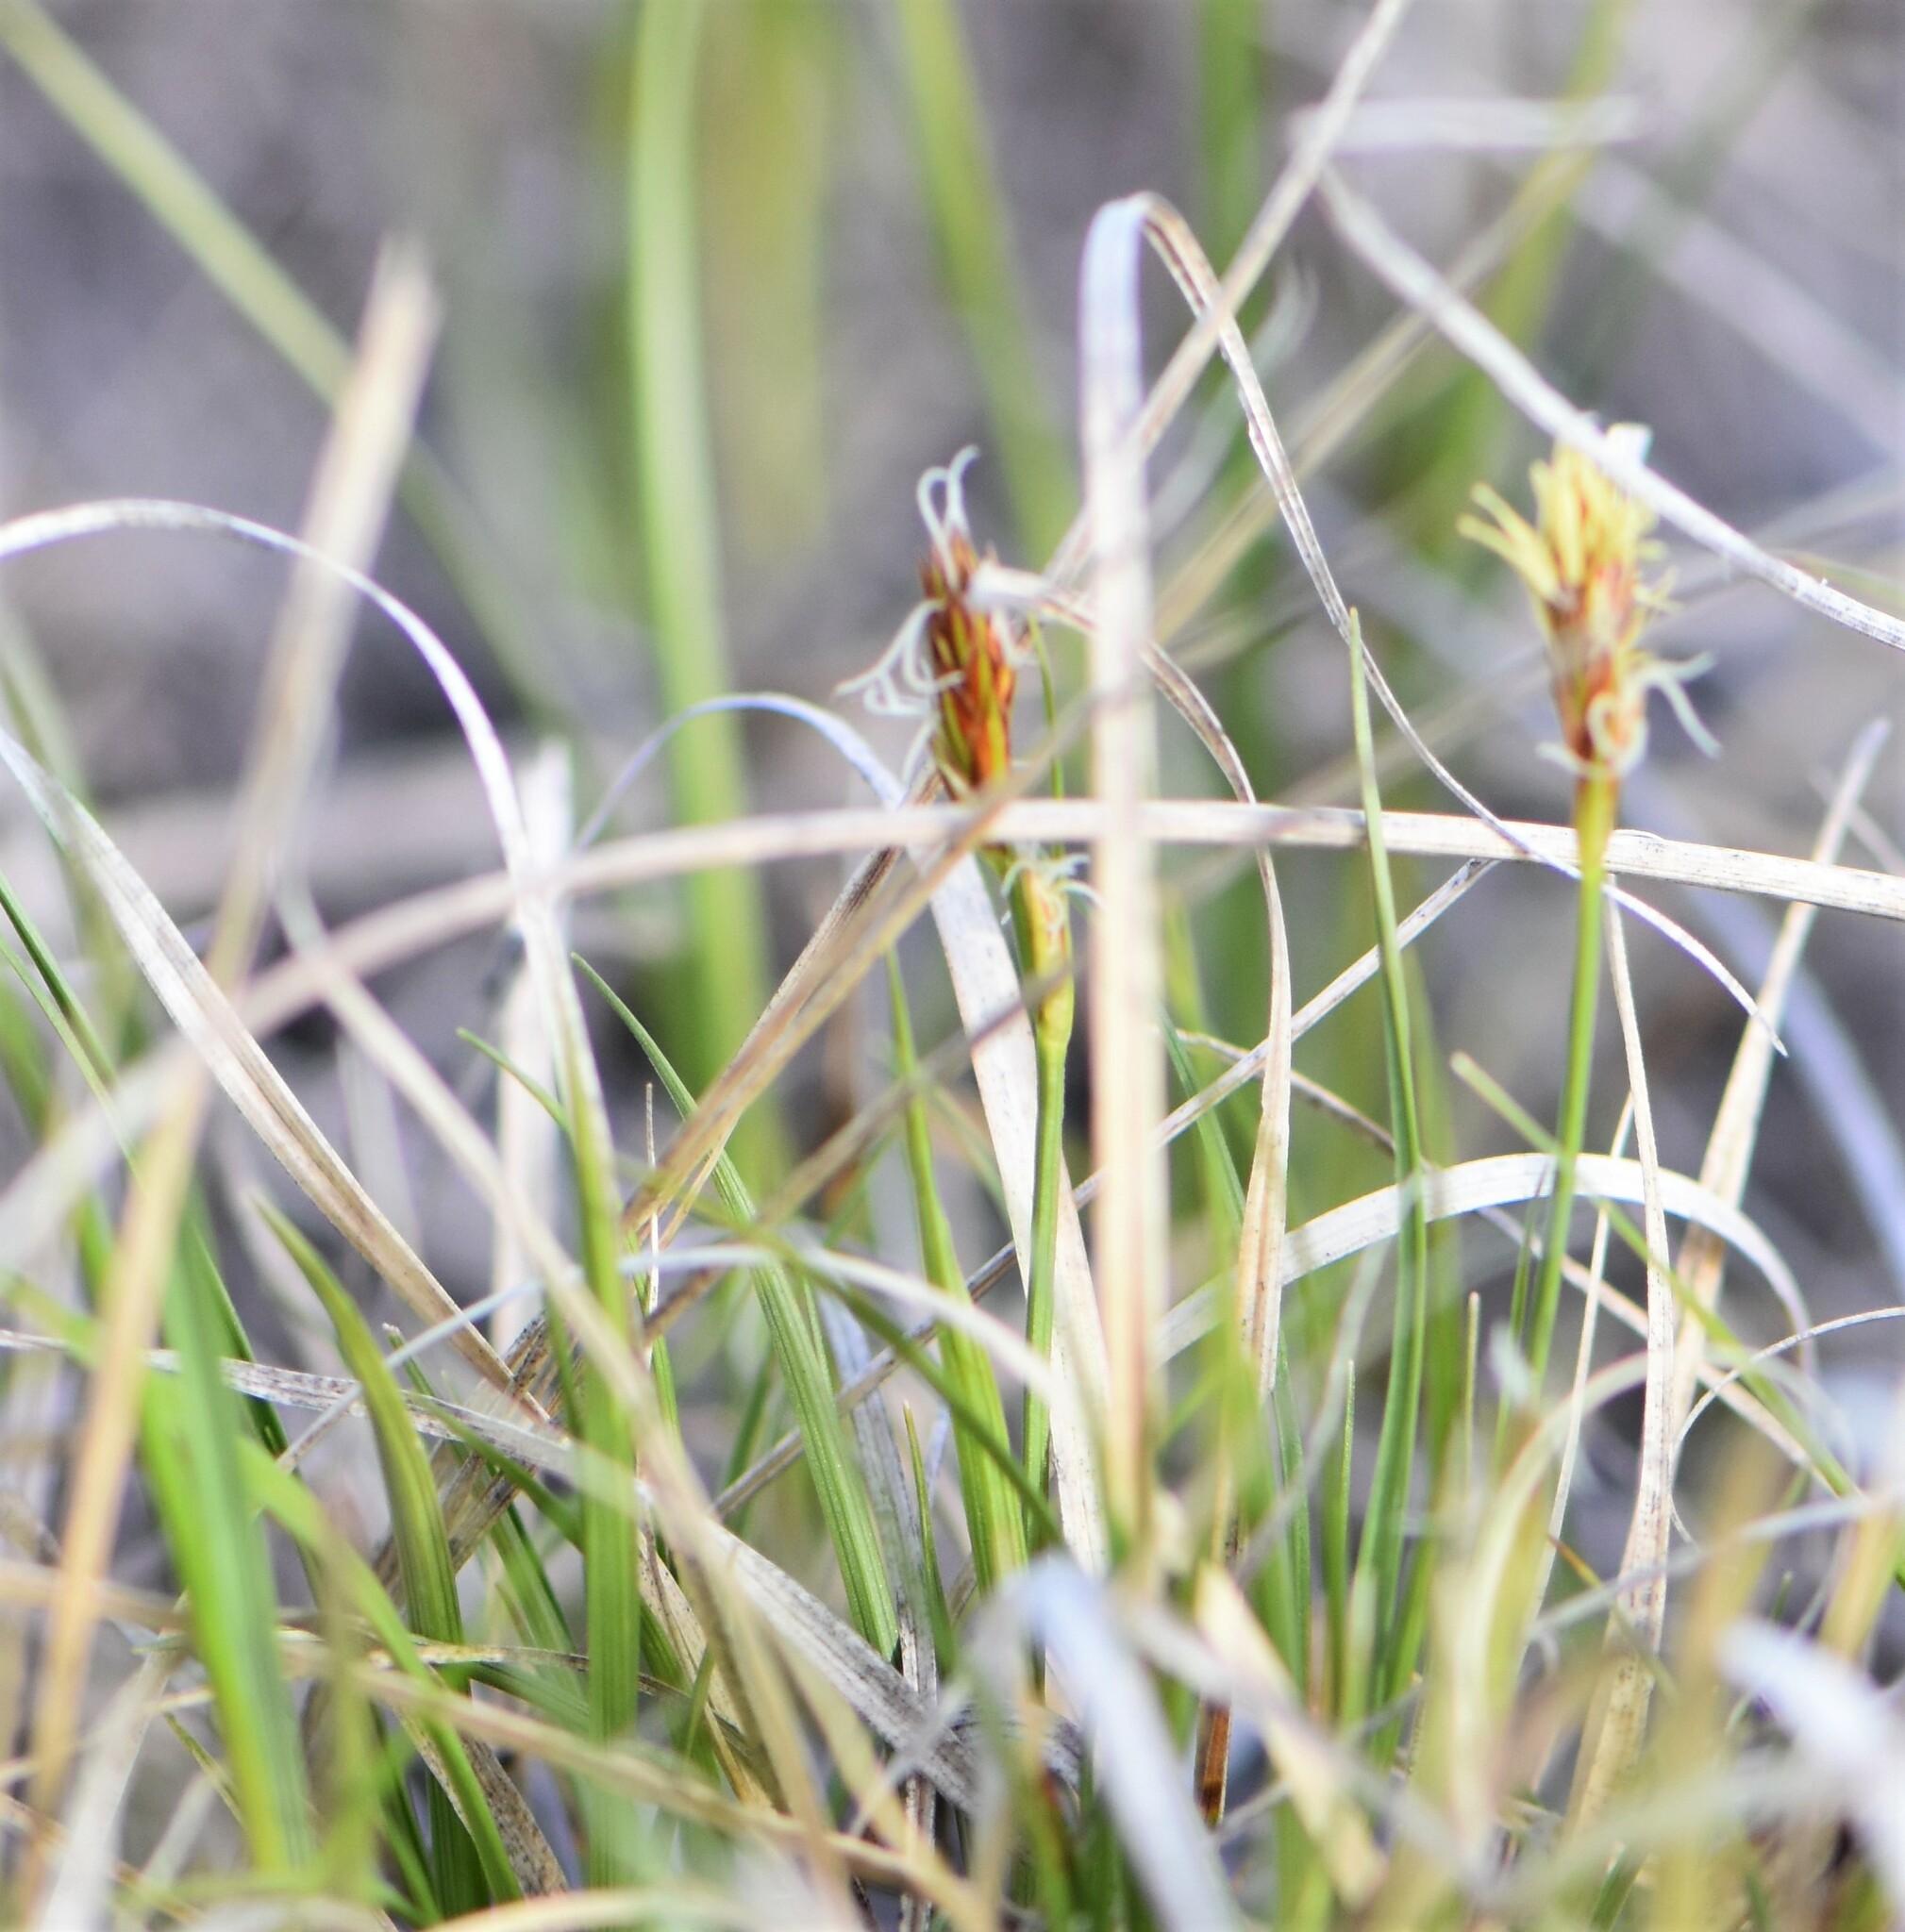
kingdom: Plantae
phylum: Tracheophyta
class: Liliopsida
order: Poales
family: Cyperaceae
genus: Carex
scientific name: Carex inops
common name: Long-stolon sedge
